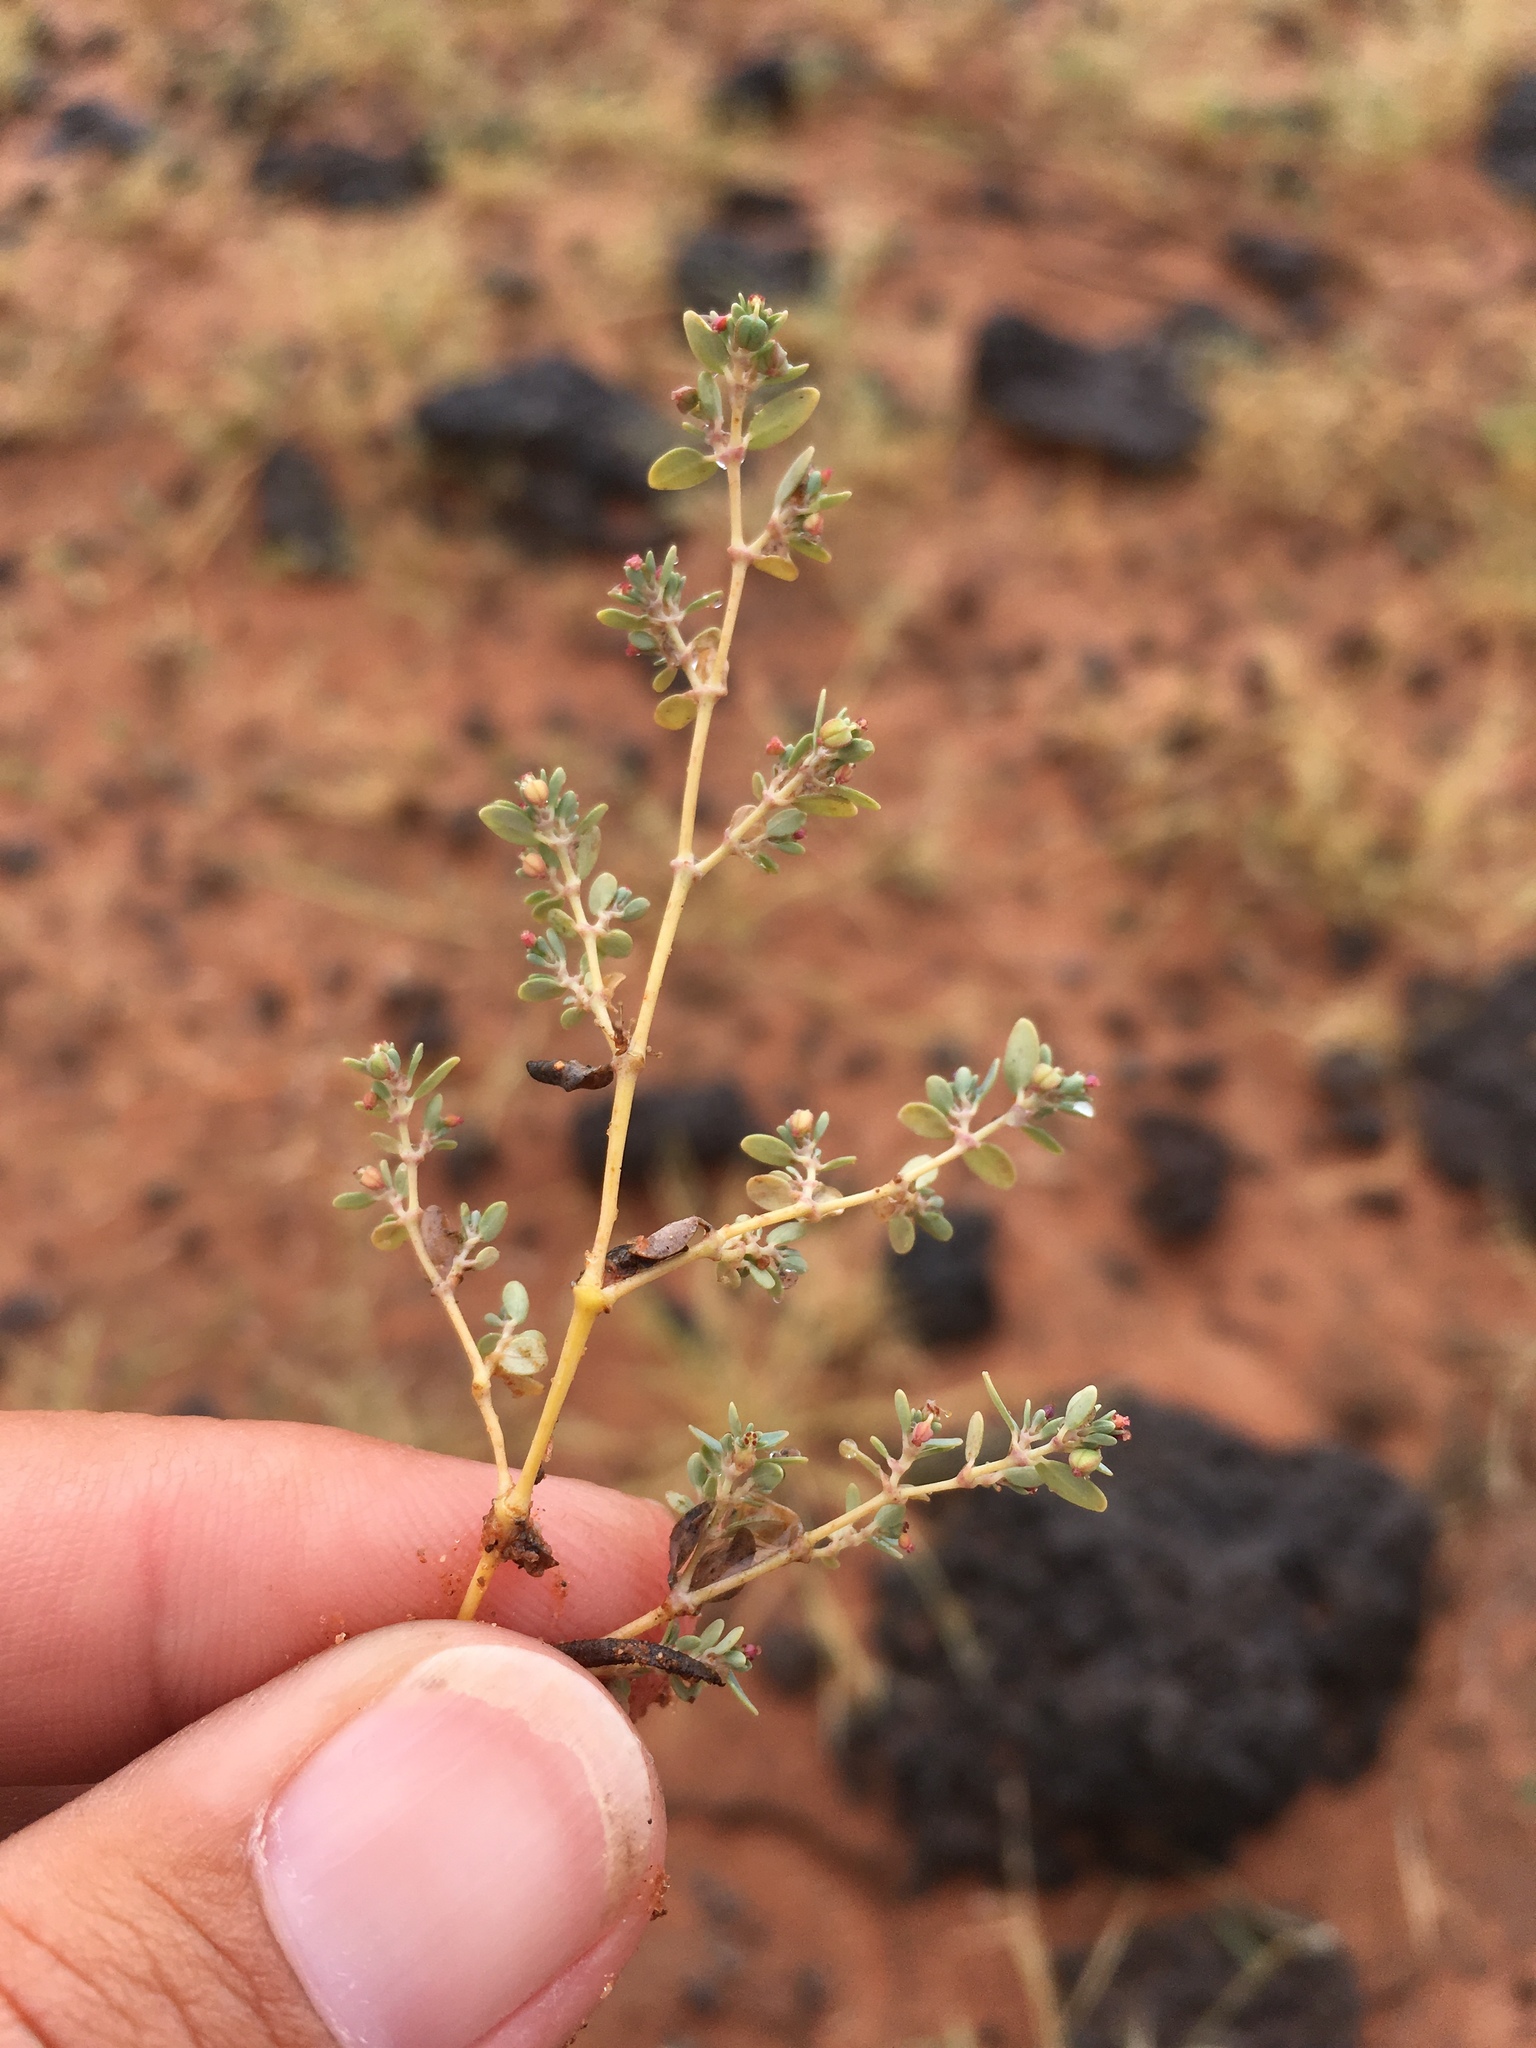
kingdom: Plantae
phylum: Tracheophyta
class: Magnoliopsida
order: Malpighiales
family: Euphorbiaceae
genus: Euphorbia
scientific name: Euphorbia micromera
